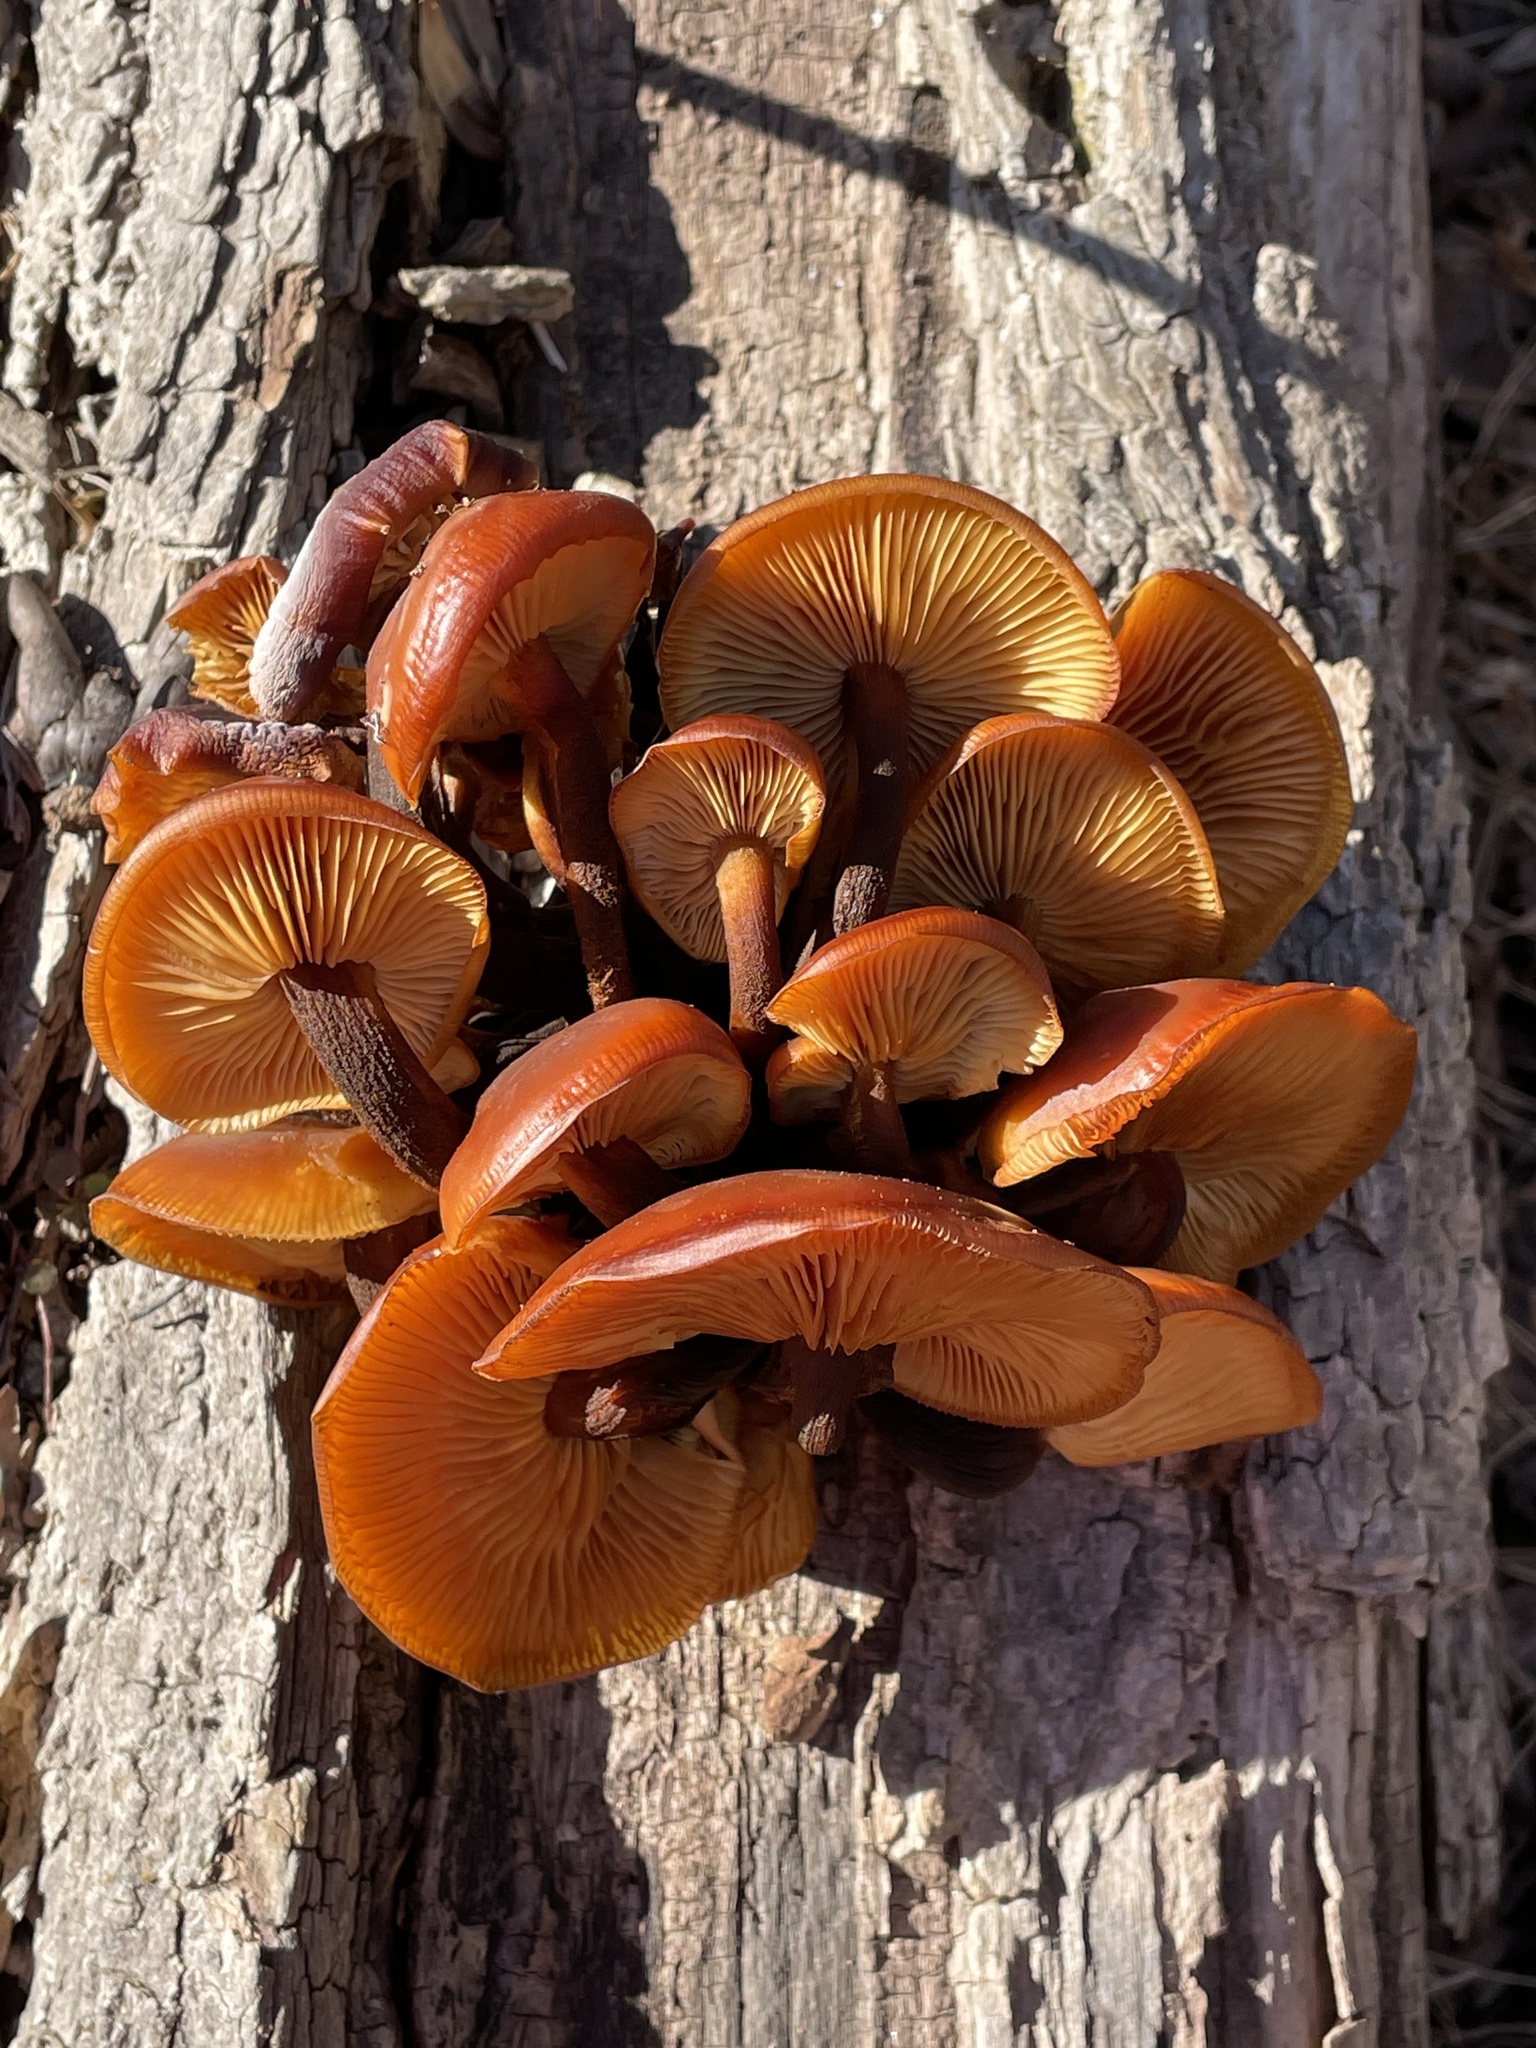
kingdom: Fungi
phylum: Basidiomycota
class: Agaricomycetes
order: Agaricales
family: Physalacriaceae
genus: Flammulina
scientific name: Flammulina velutipes
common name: Velvet shank
